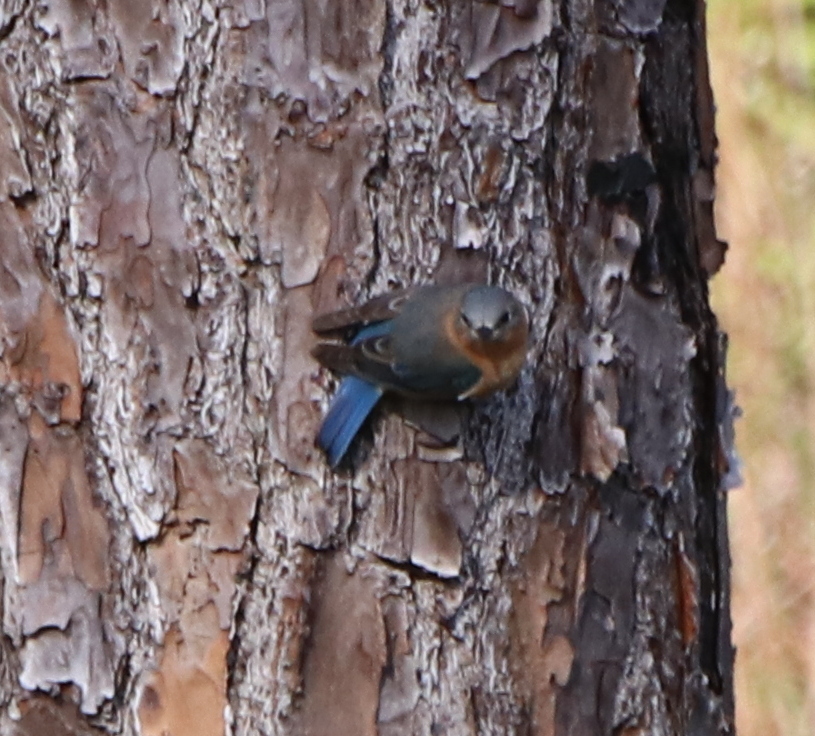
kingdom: Animalia
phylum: Chordata
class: Aves
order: Passeriformes
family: Turdidae
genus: Sialia
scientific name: Sialia sialis
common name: Eastern bluebird
